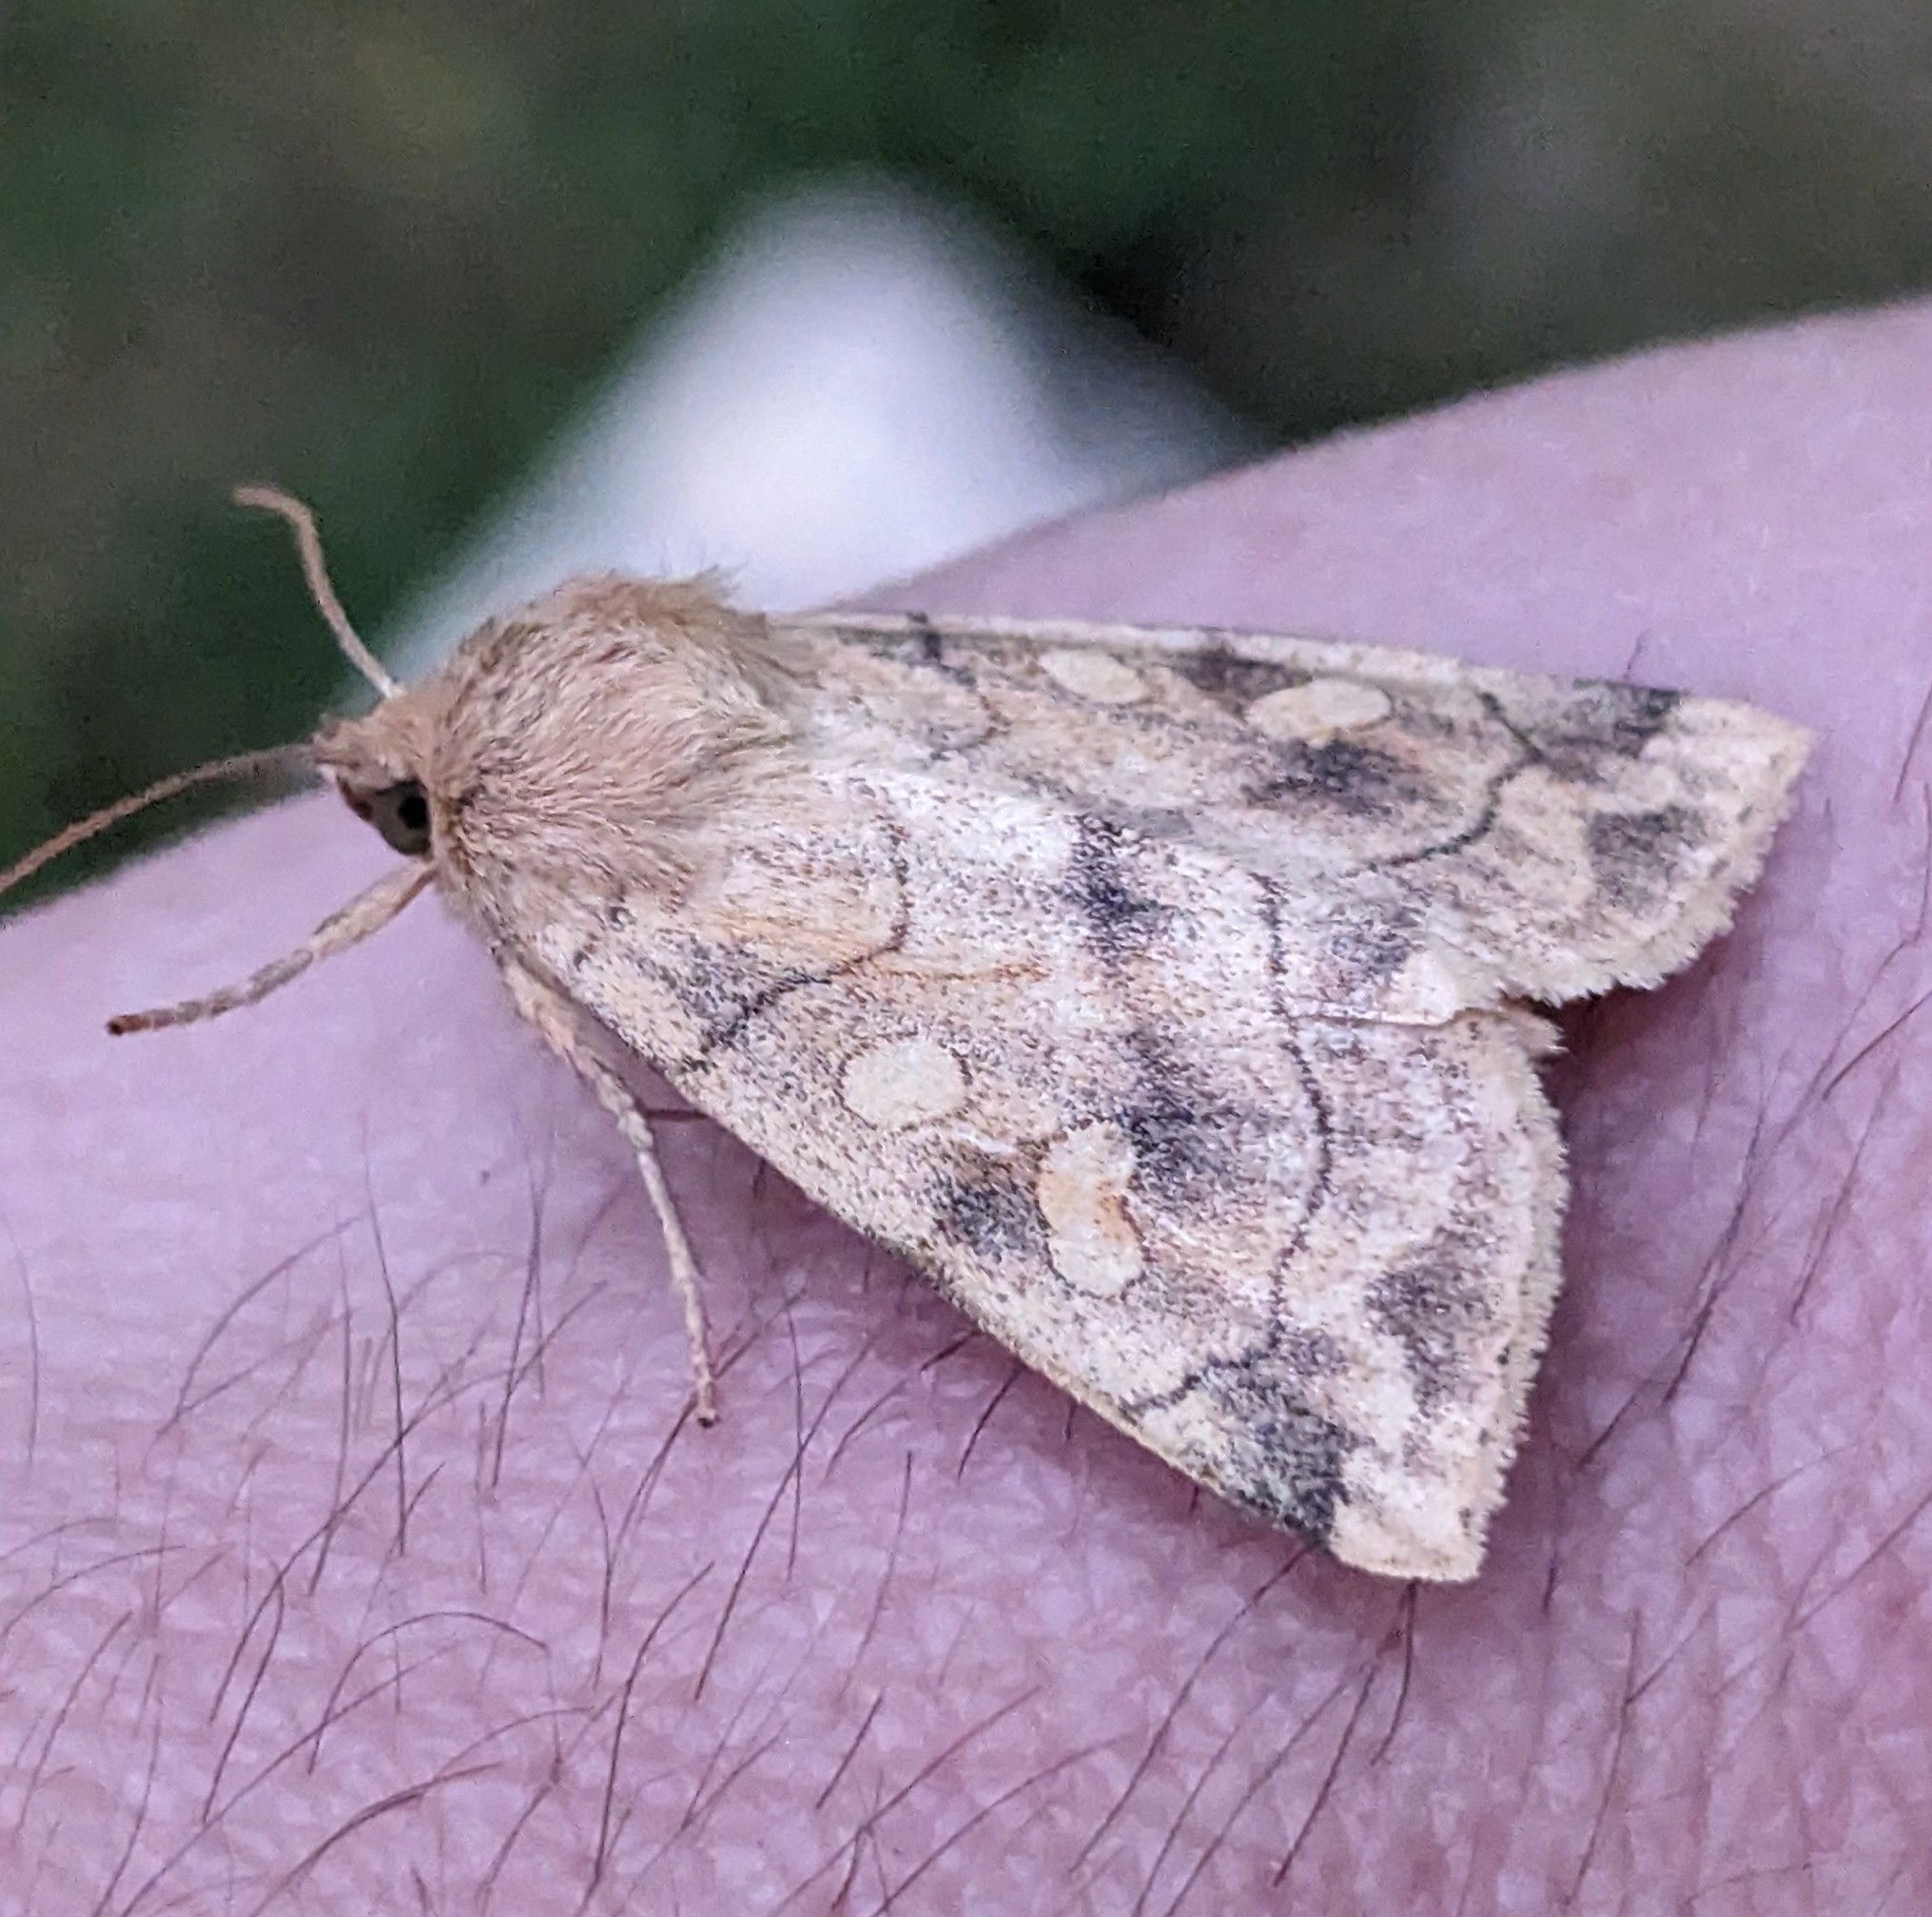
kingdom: Animalia
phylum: Arthropoda
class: Insecta
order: Lepidoptera
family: Noctuidae
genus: Enargia
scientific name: Enargia decolor
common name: Aspen twoleaf tier moth
